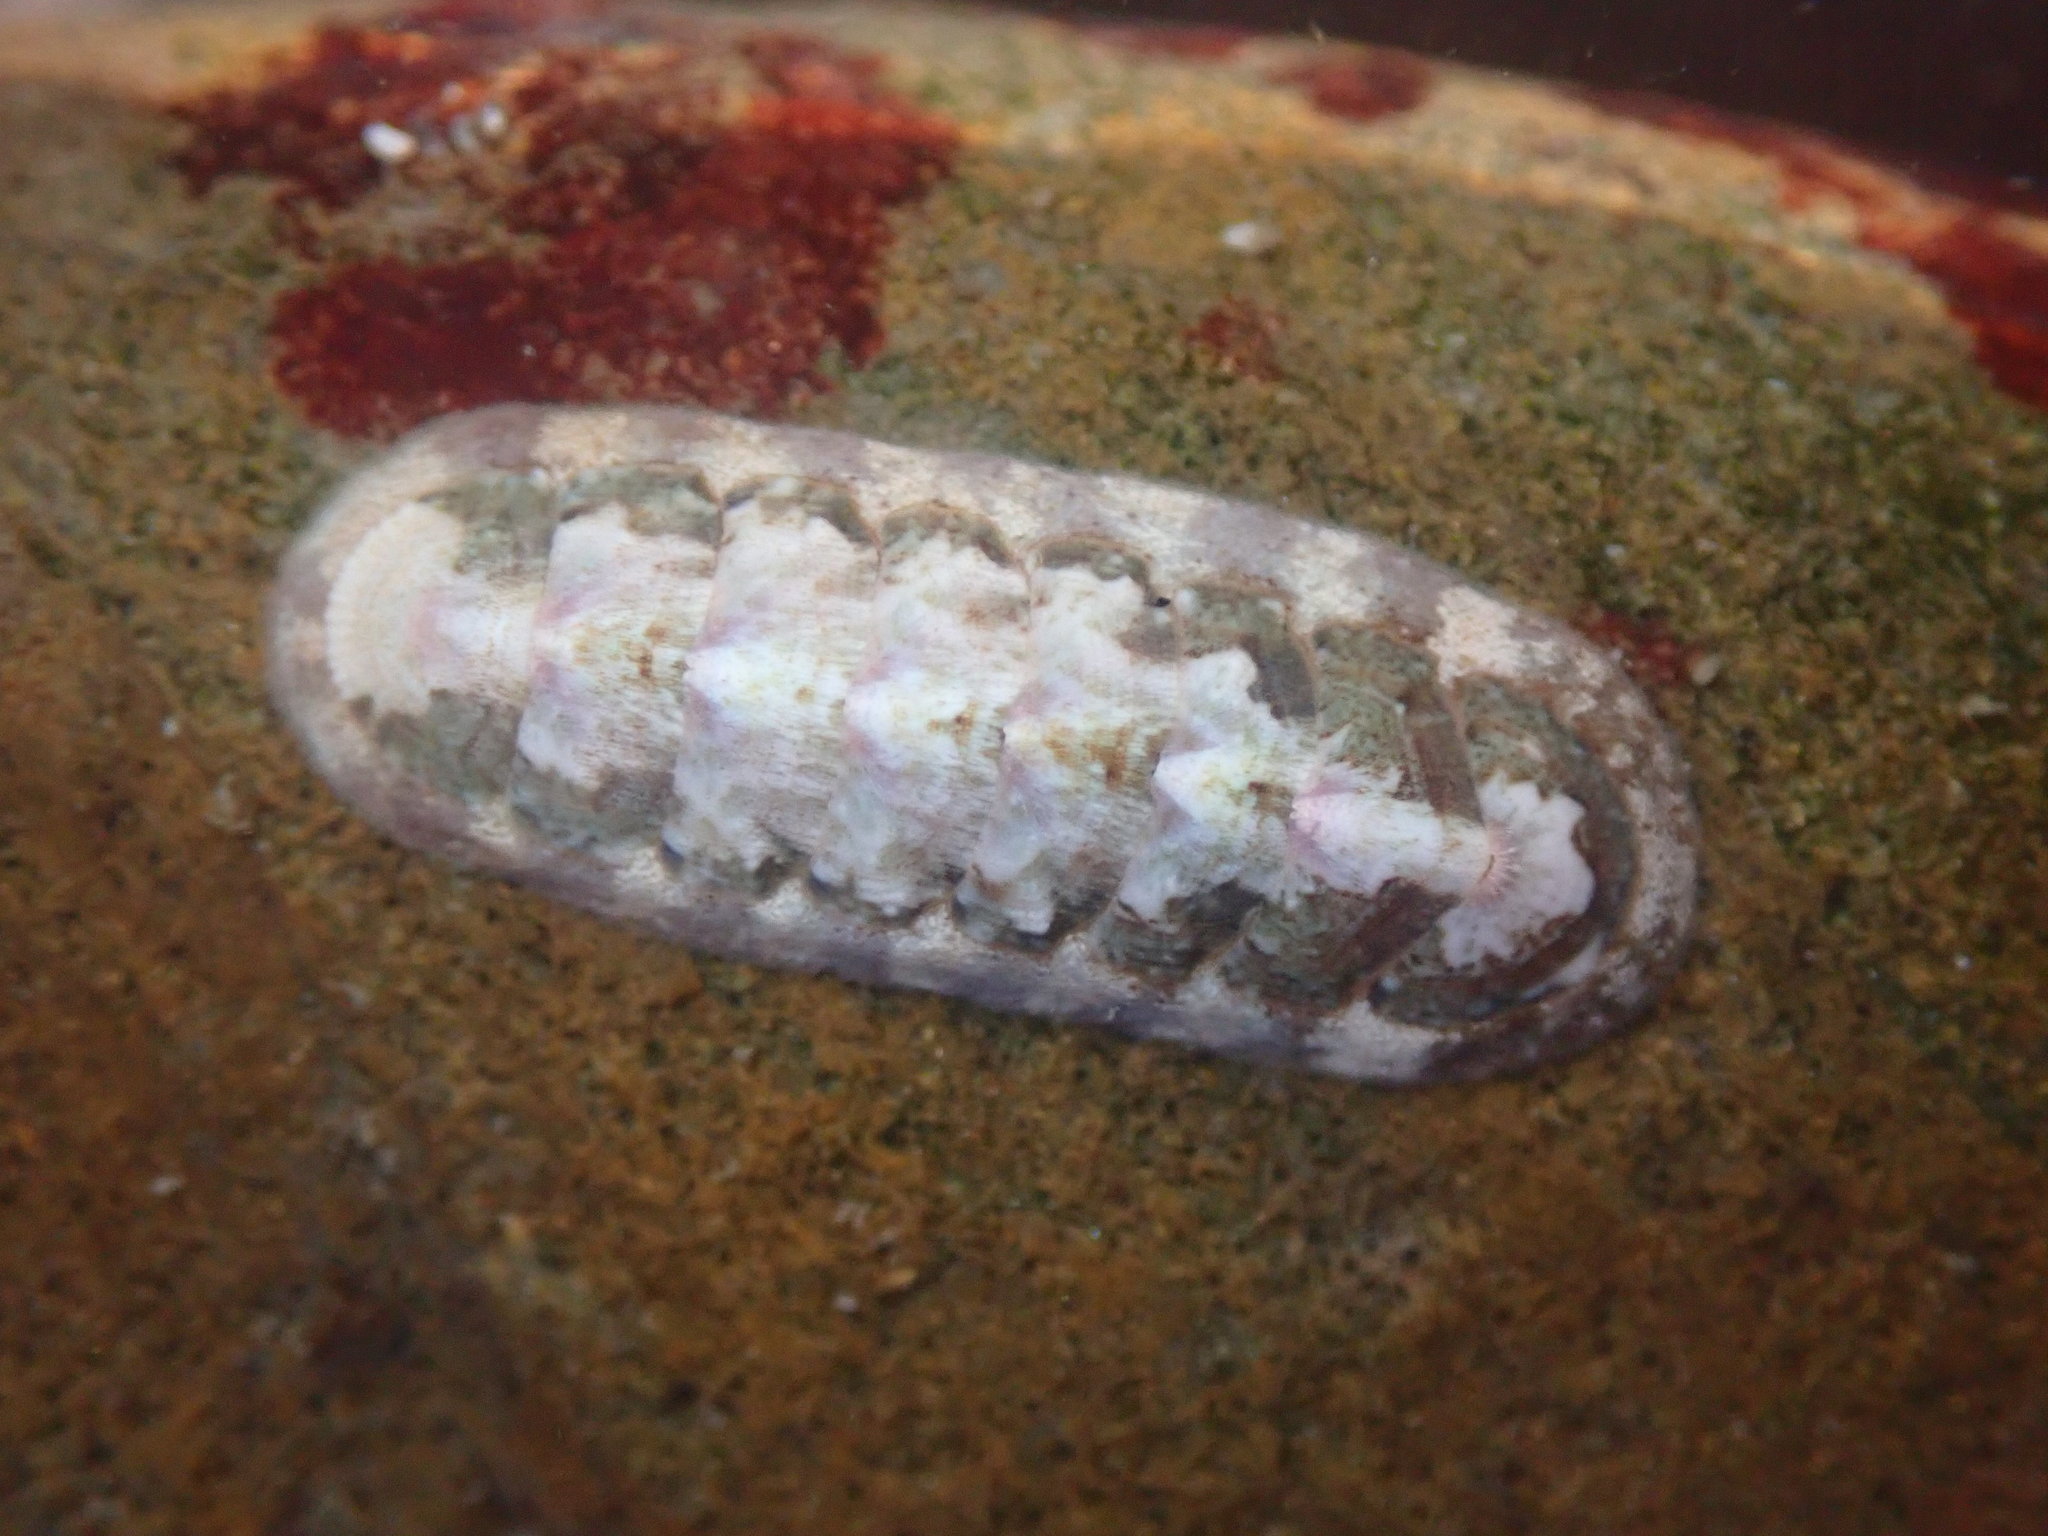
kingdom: Animalia
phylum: Mollusca
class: Polyplacophora
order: Chitonida
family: Ischnochitonidae
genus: Stenoplax
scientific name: Stenoplax heathiana
